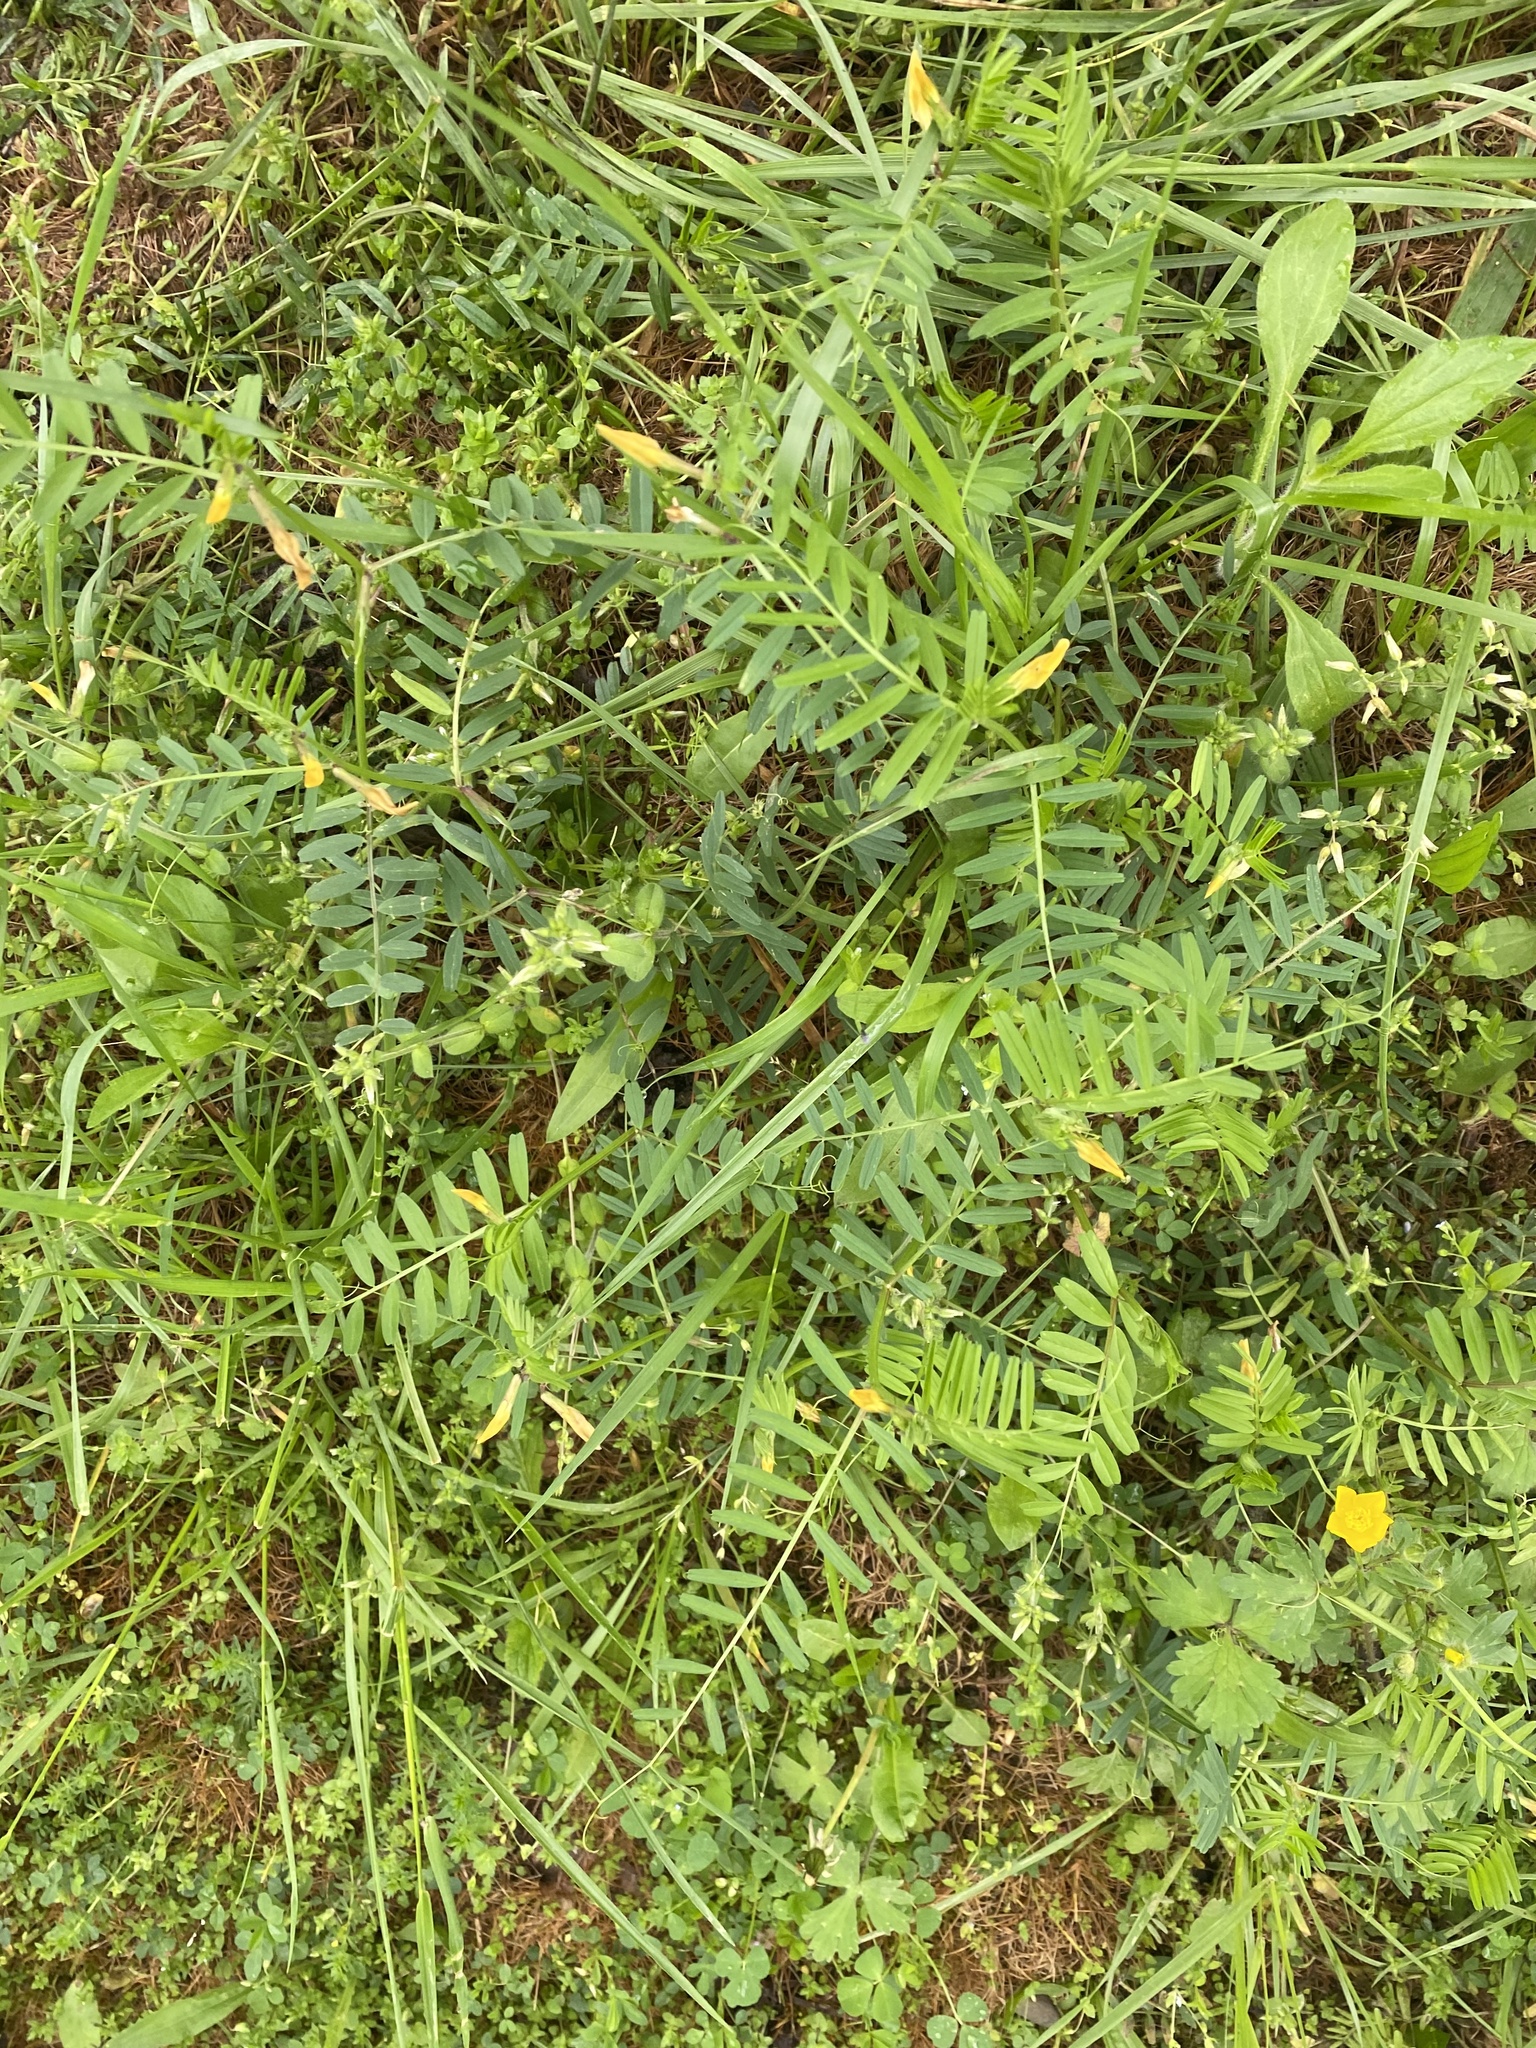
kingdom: Plantae
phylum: Tracheophyta
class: Magnoliopsida
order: Fabales
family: Fabaceae
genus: Vicia
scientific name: Vicia grandiflora
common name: Large yellow vetch
